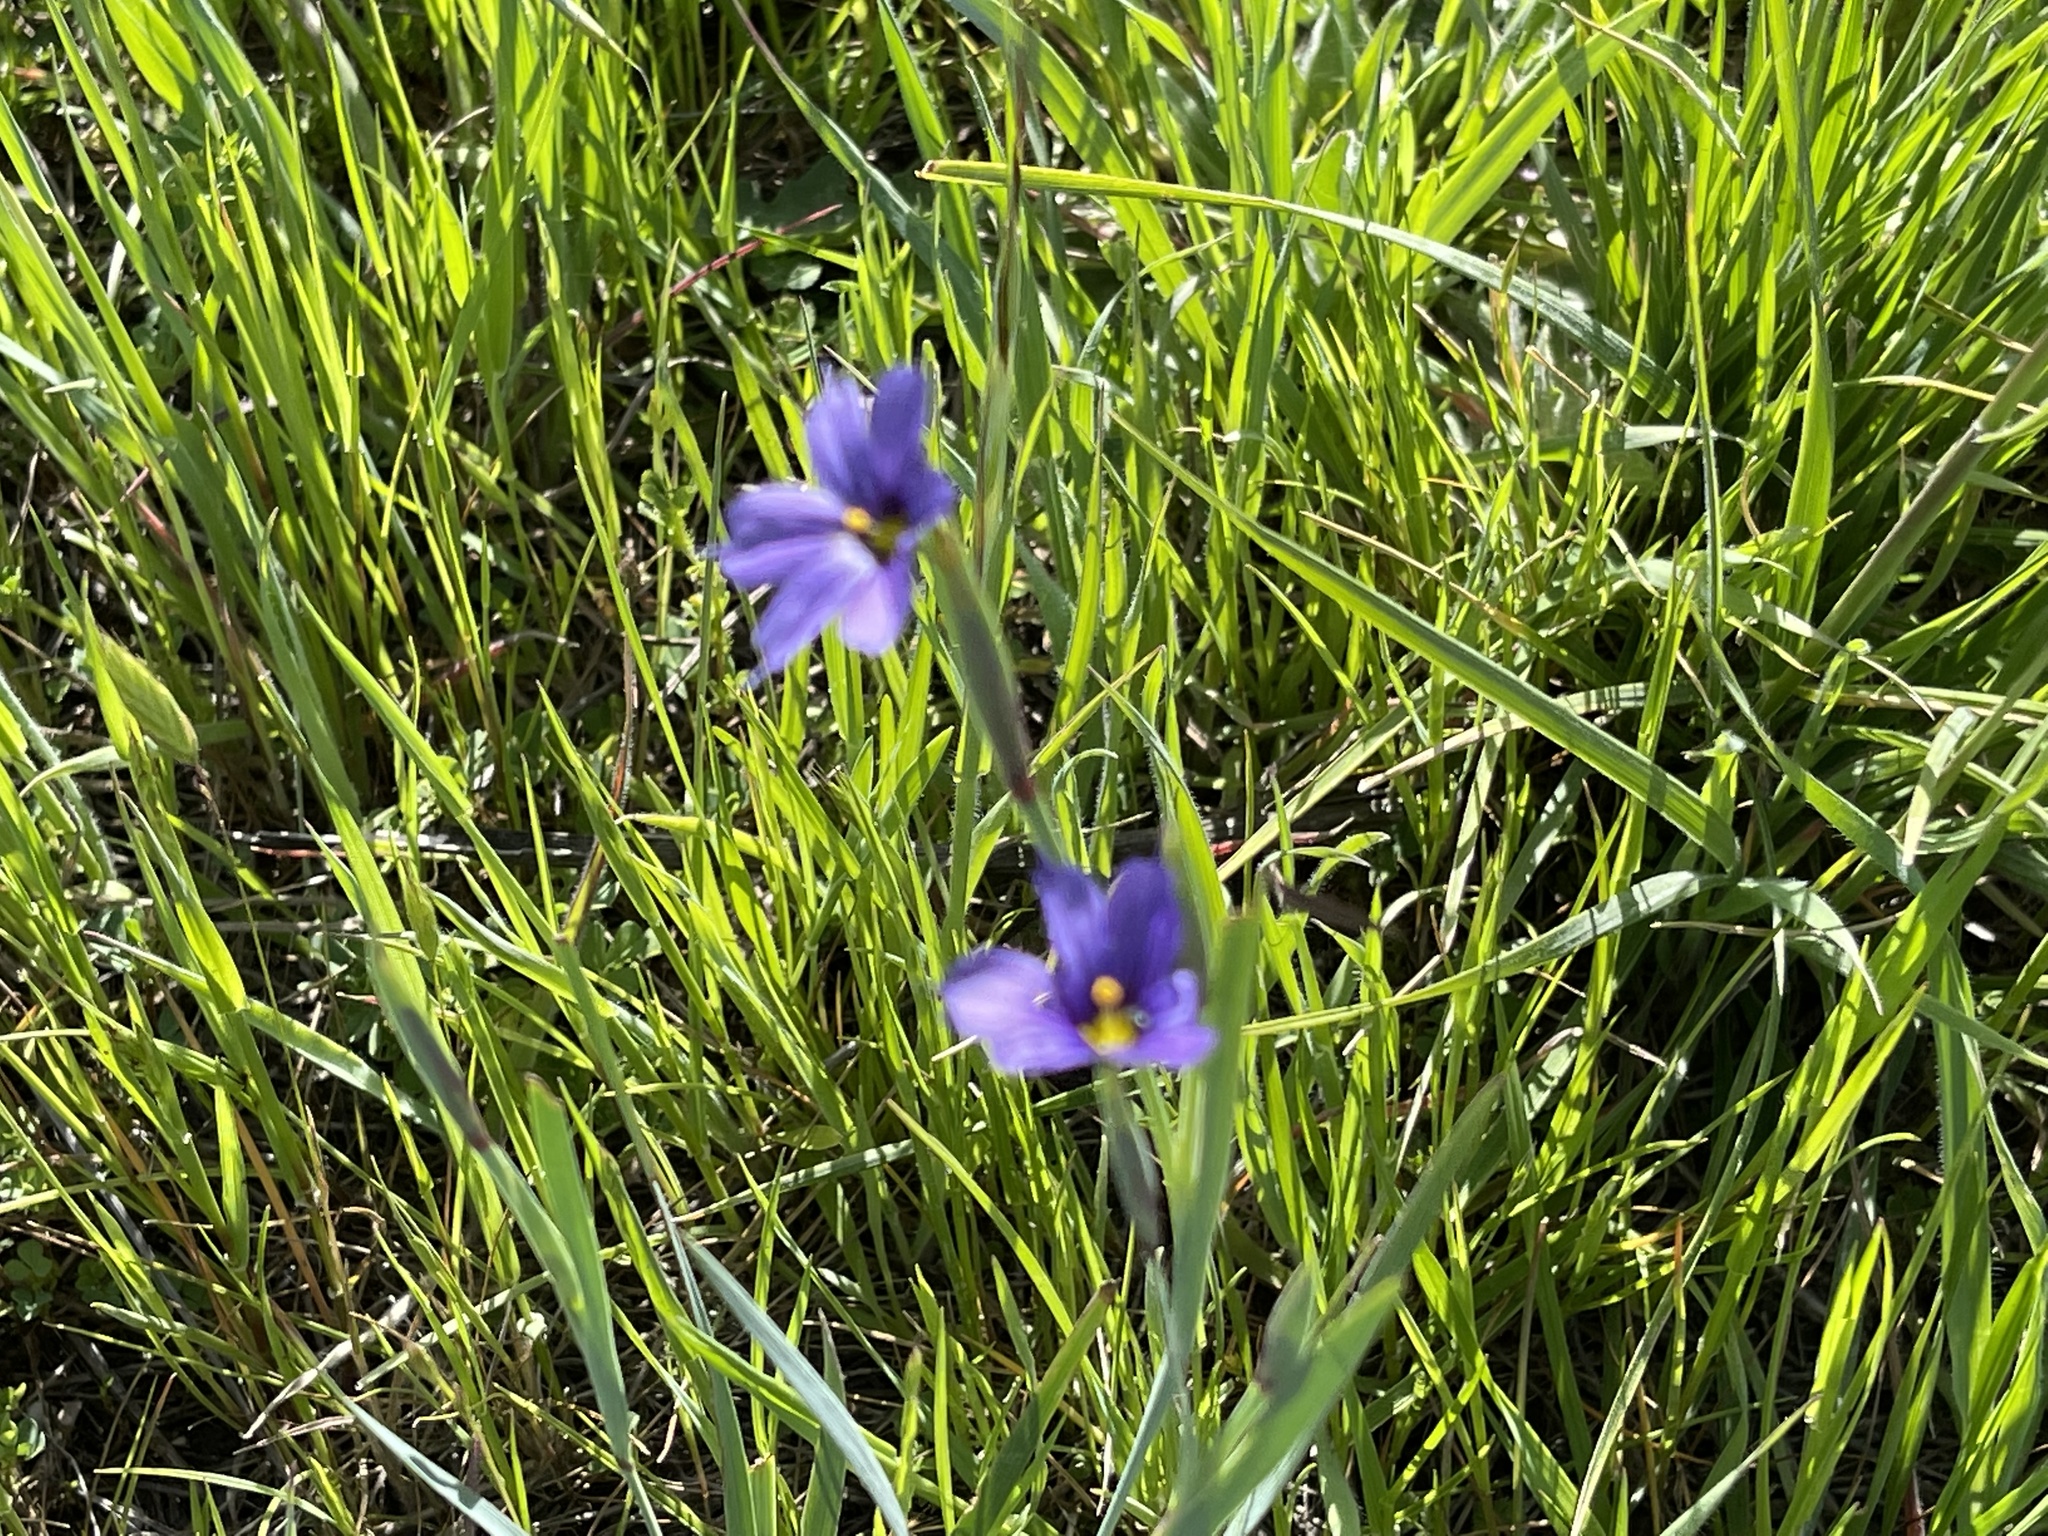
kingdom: Plantae
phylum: Tracheophyta
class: Liliopsida
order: Asparagales
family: Iridaceae
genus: Sisyrinchium
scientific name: Sisyrinchium bellum
